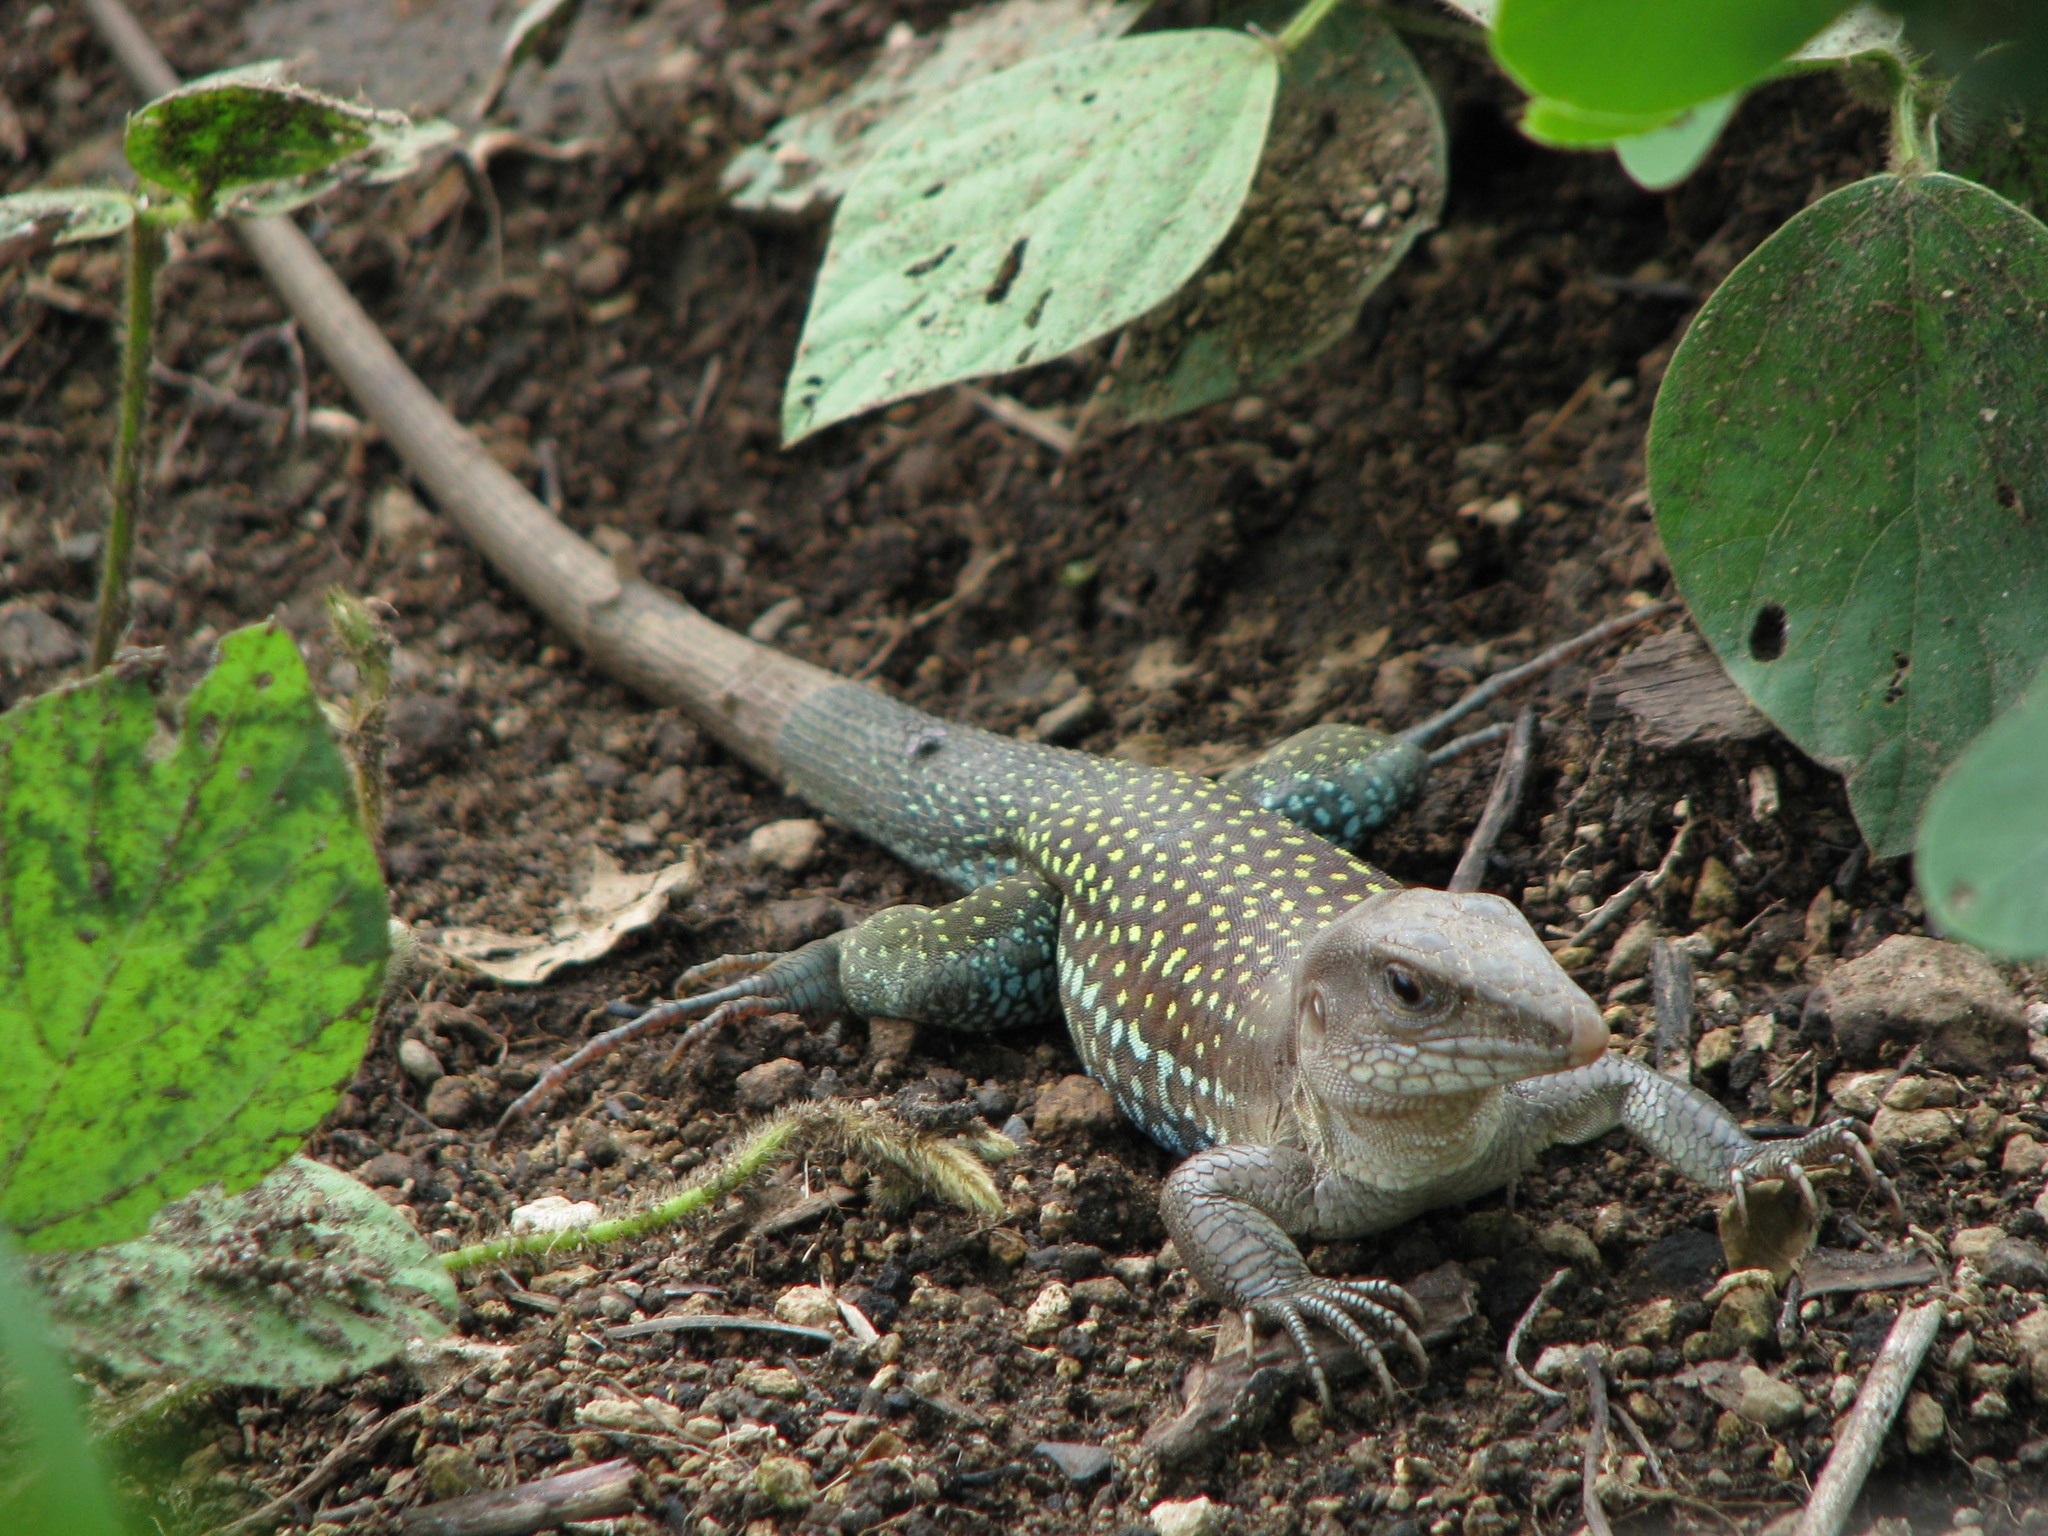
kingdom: Animalia
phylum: Chordata
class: Squamata
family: Teiidae
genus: Aspidoscelis
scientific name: Aspidoscelis motaguae
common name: Giant whiptail
